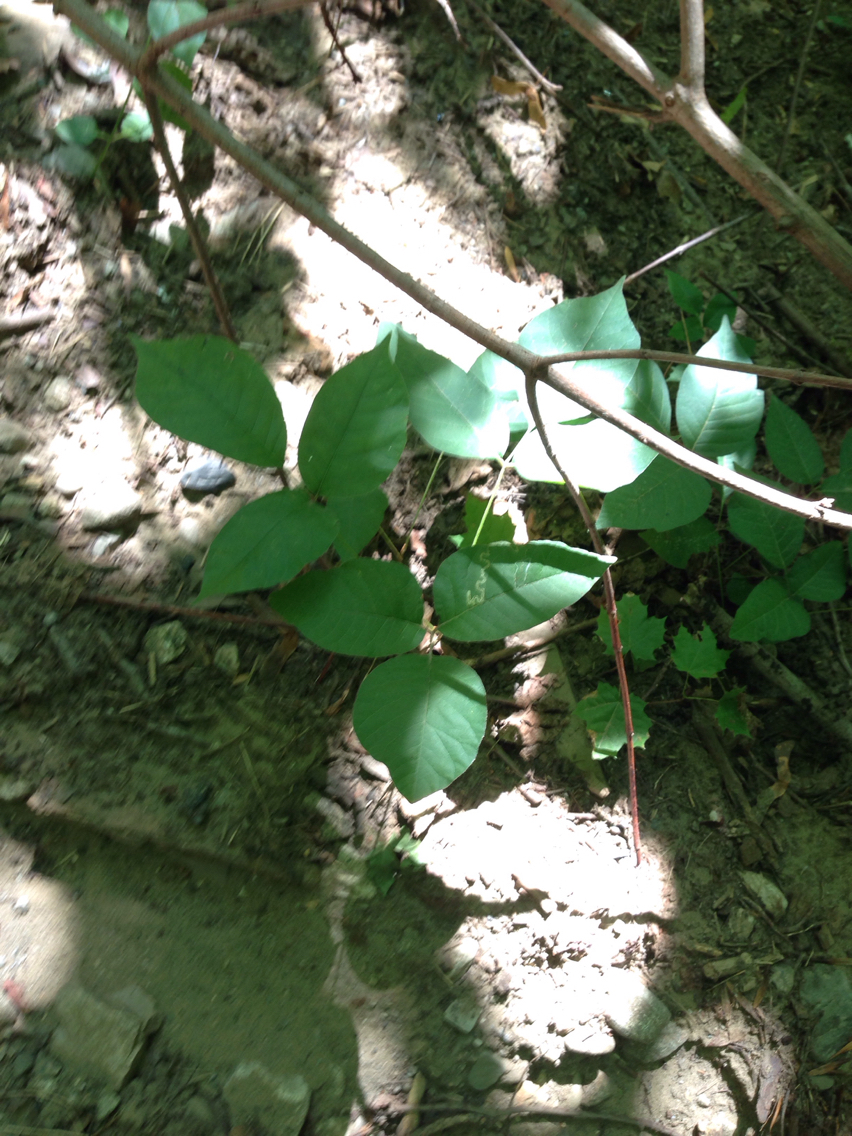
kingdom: Plantae
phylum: Tracheophyta
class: Magnoliopsida
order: Sapindales
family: Anacardiaceae
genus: Toxicodendron
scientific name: Toxicodendron radicans
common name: Poison ivy
